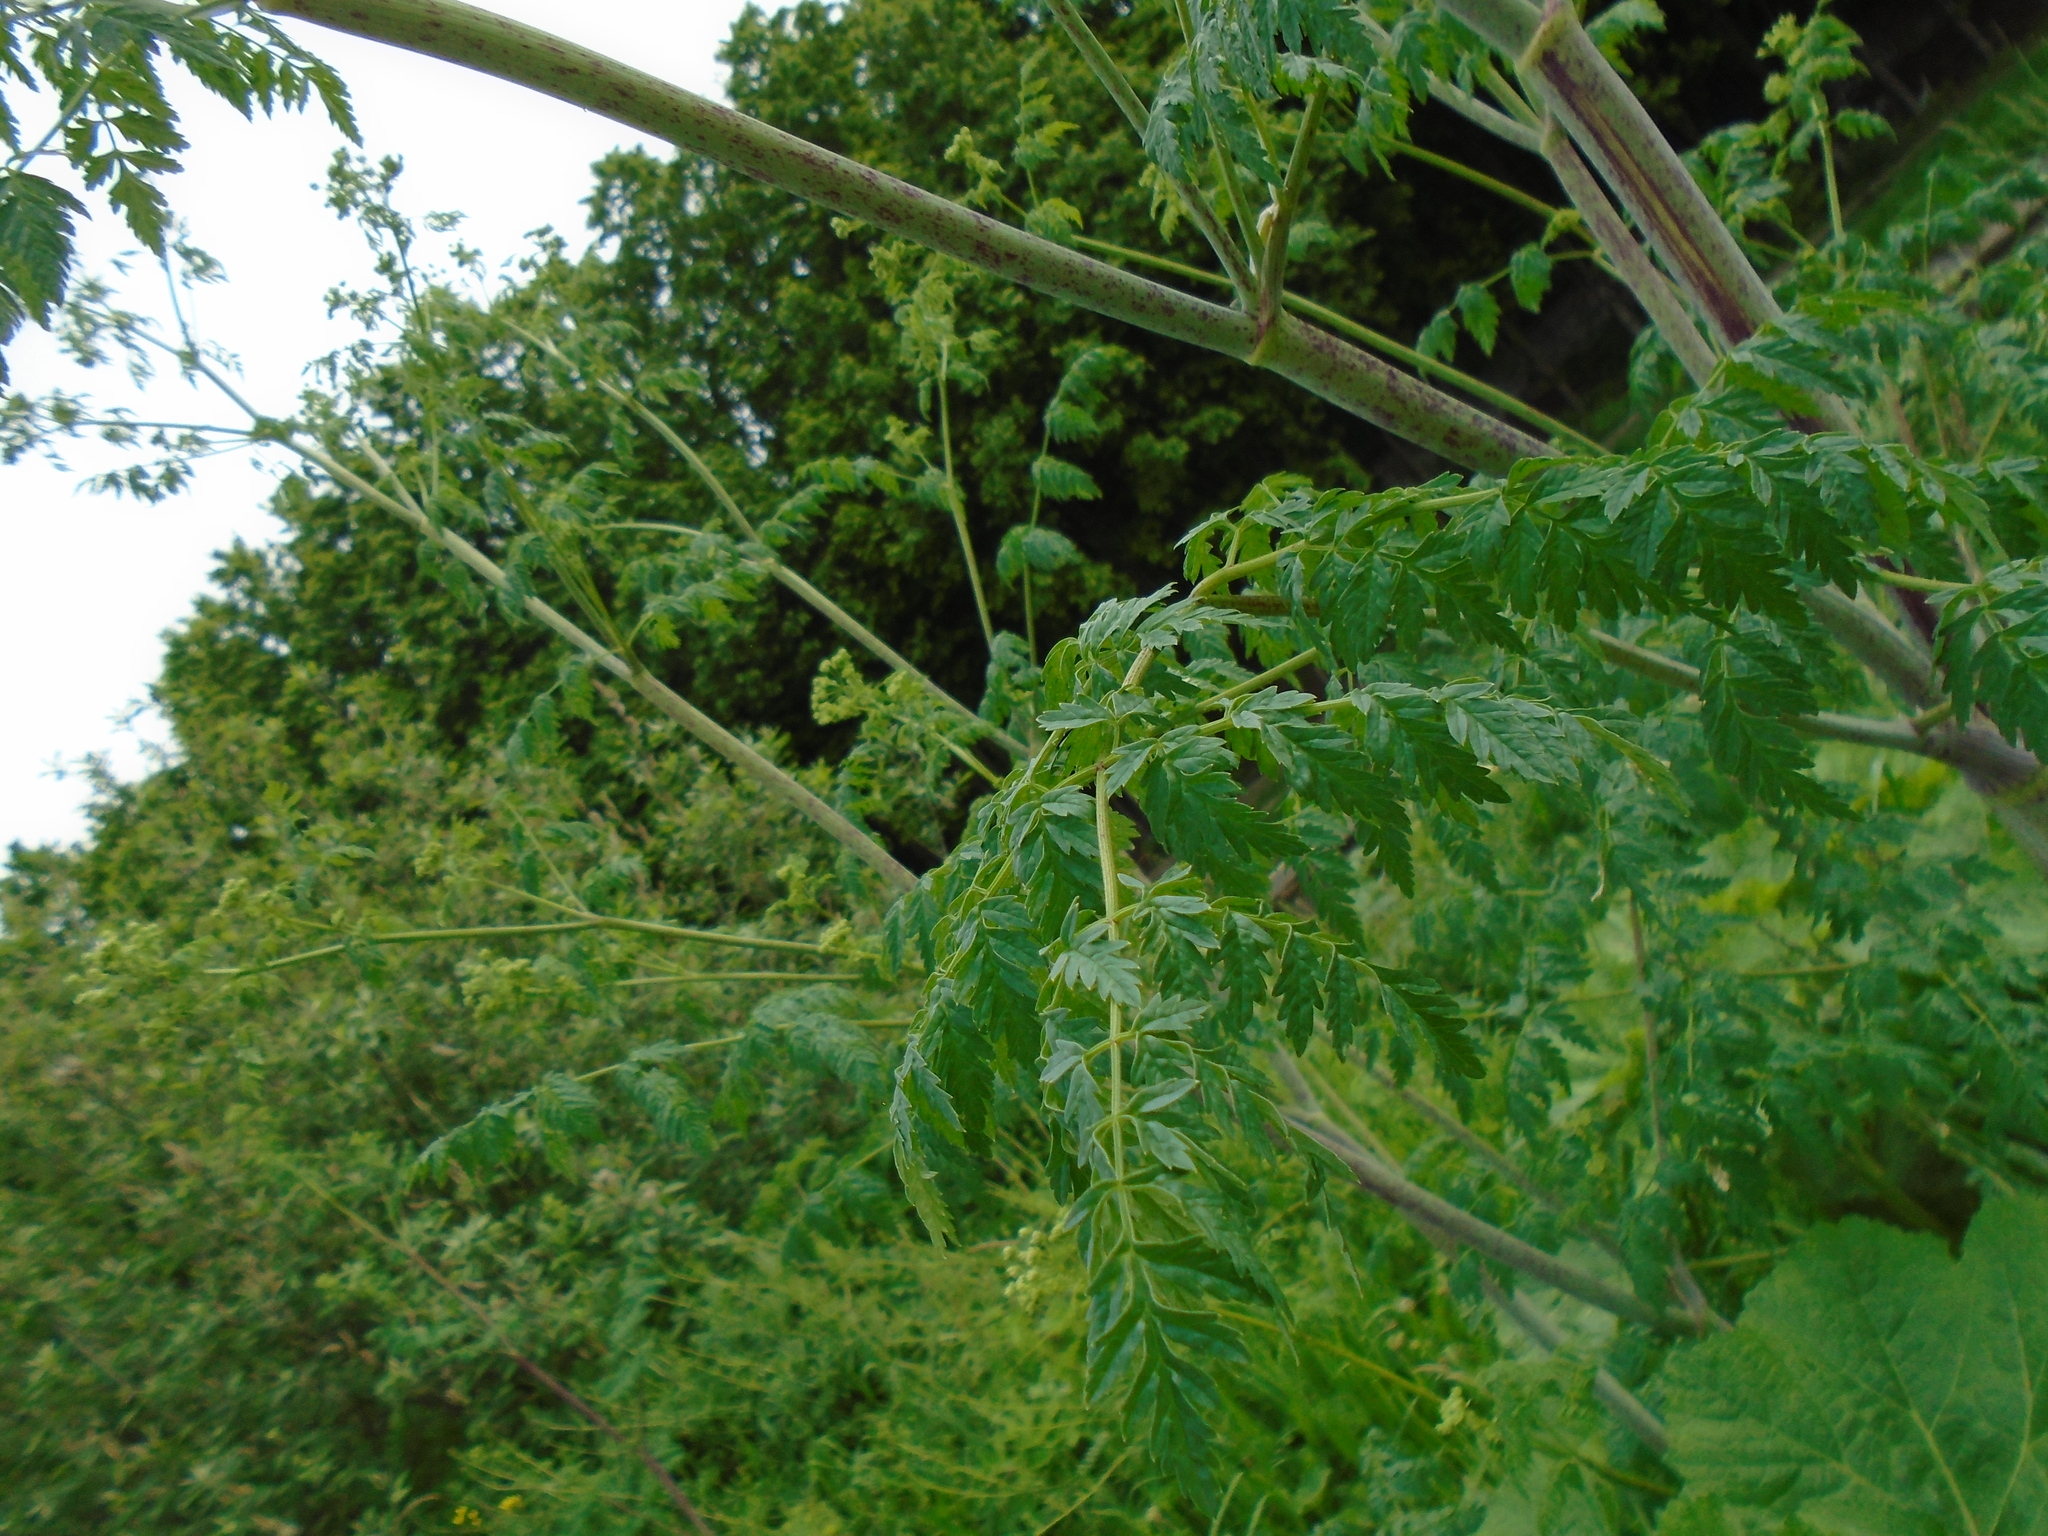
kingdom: Plantae
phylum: Tracheophyta
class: Magnoliopsida
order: Apiales
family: Apiaceae
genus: Conium
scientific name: Conium maculatum
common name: Hemlock
